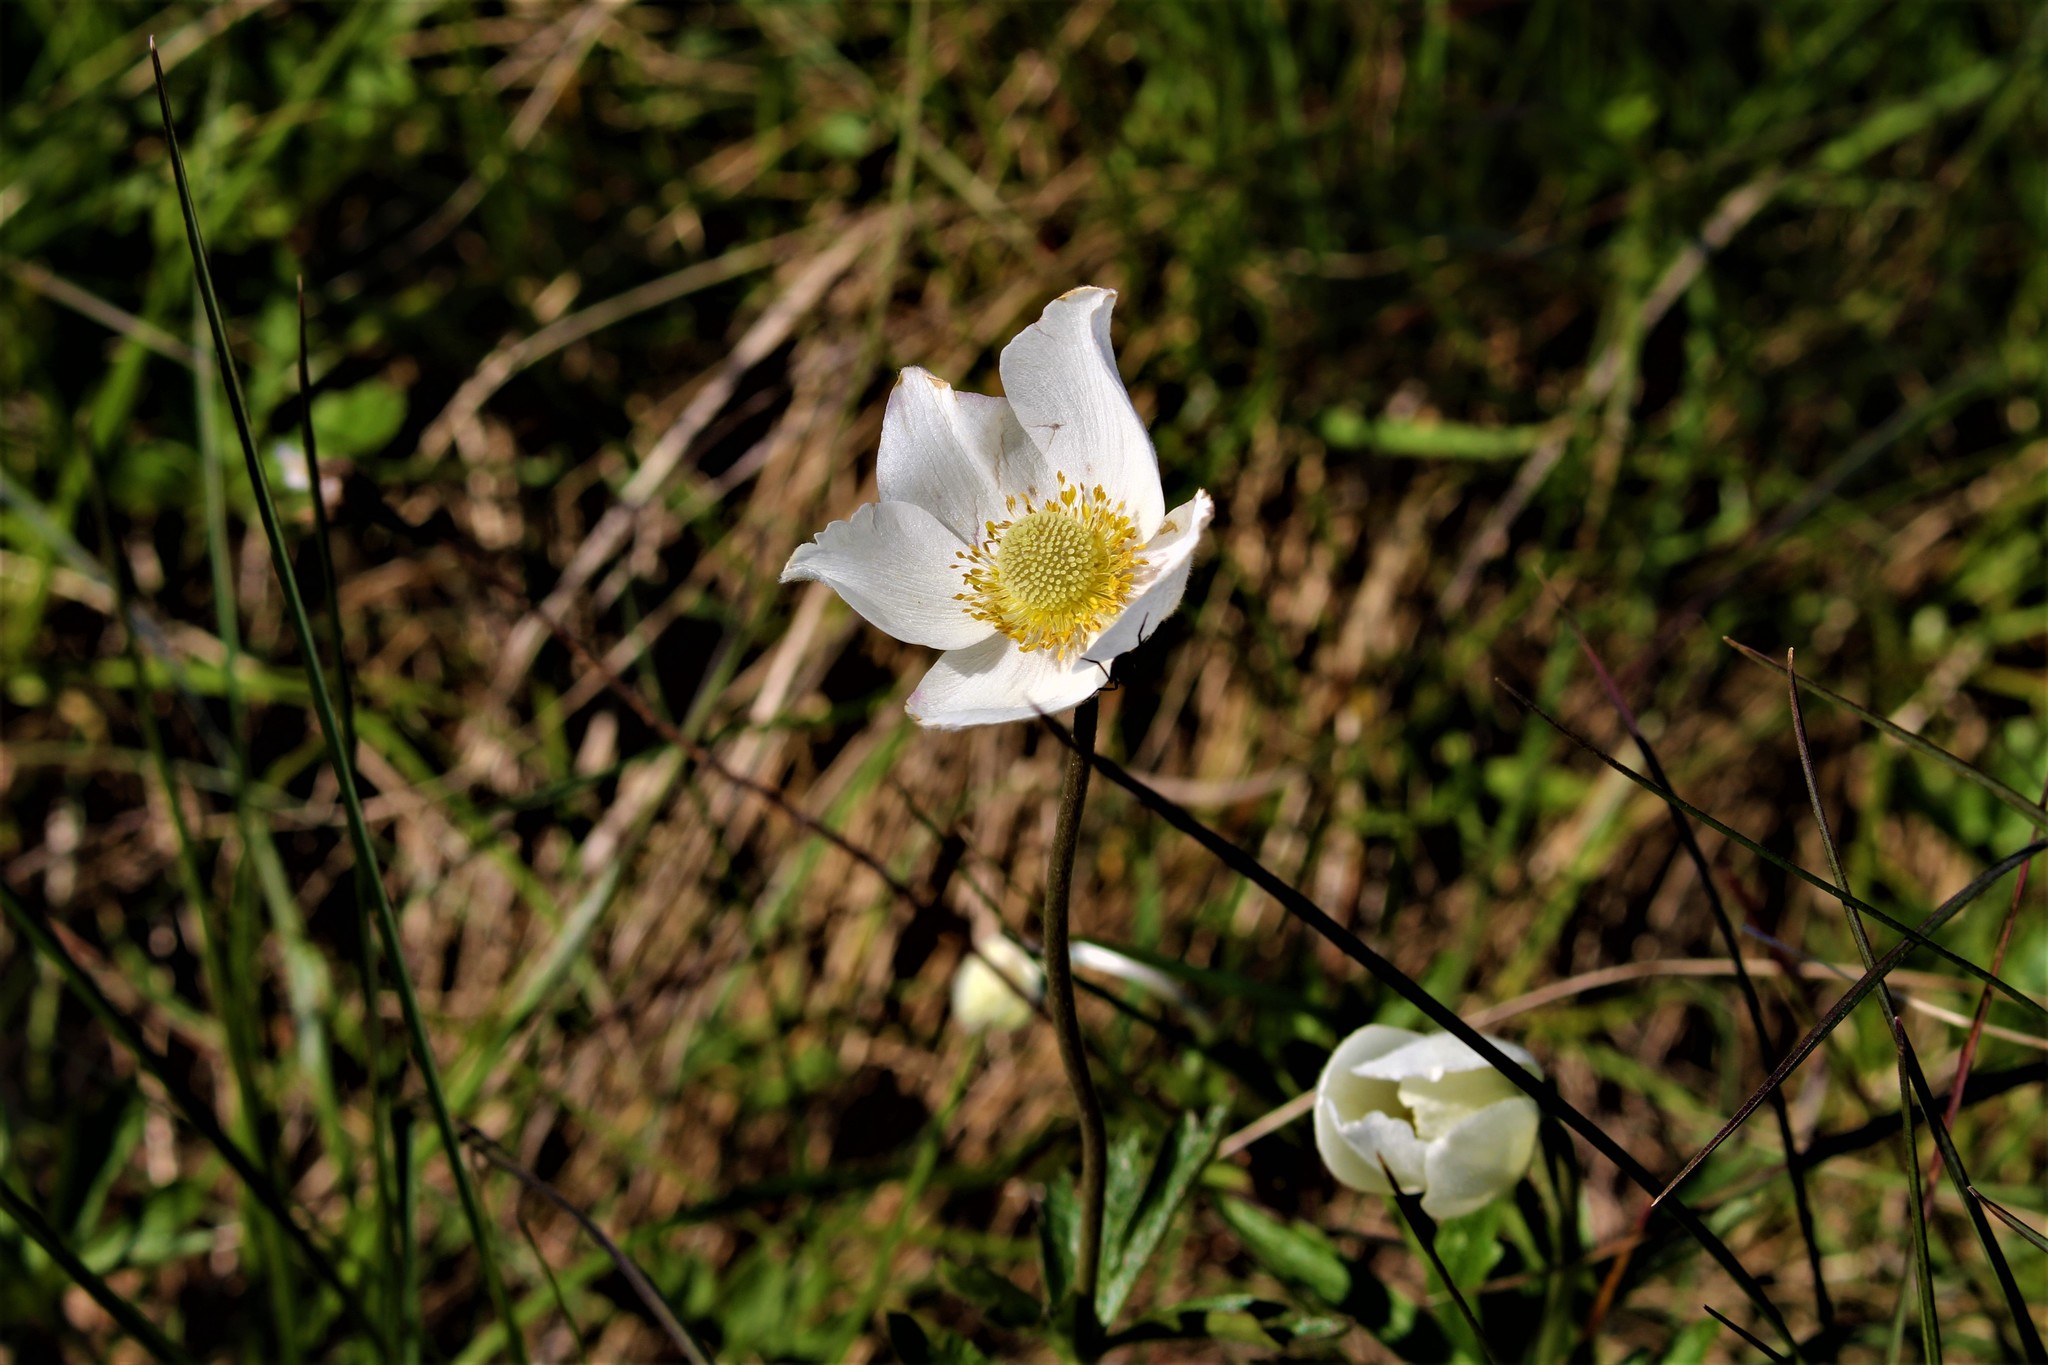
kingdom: Plantae
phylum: Tracheophyta
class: Magnoliopsida
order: Ranunculales
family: Ranunculaceae
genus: Anemone
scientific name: Anemone sylvestris
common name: Snowdrop anemone
